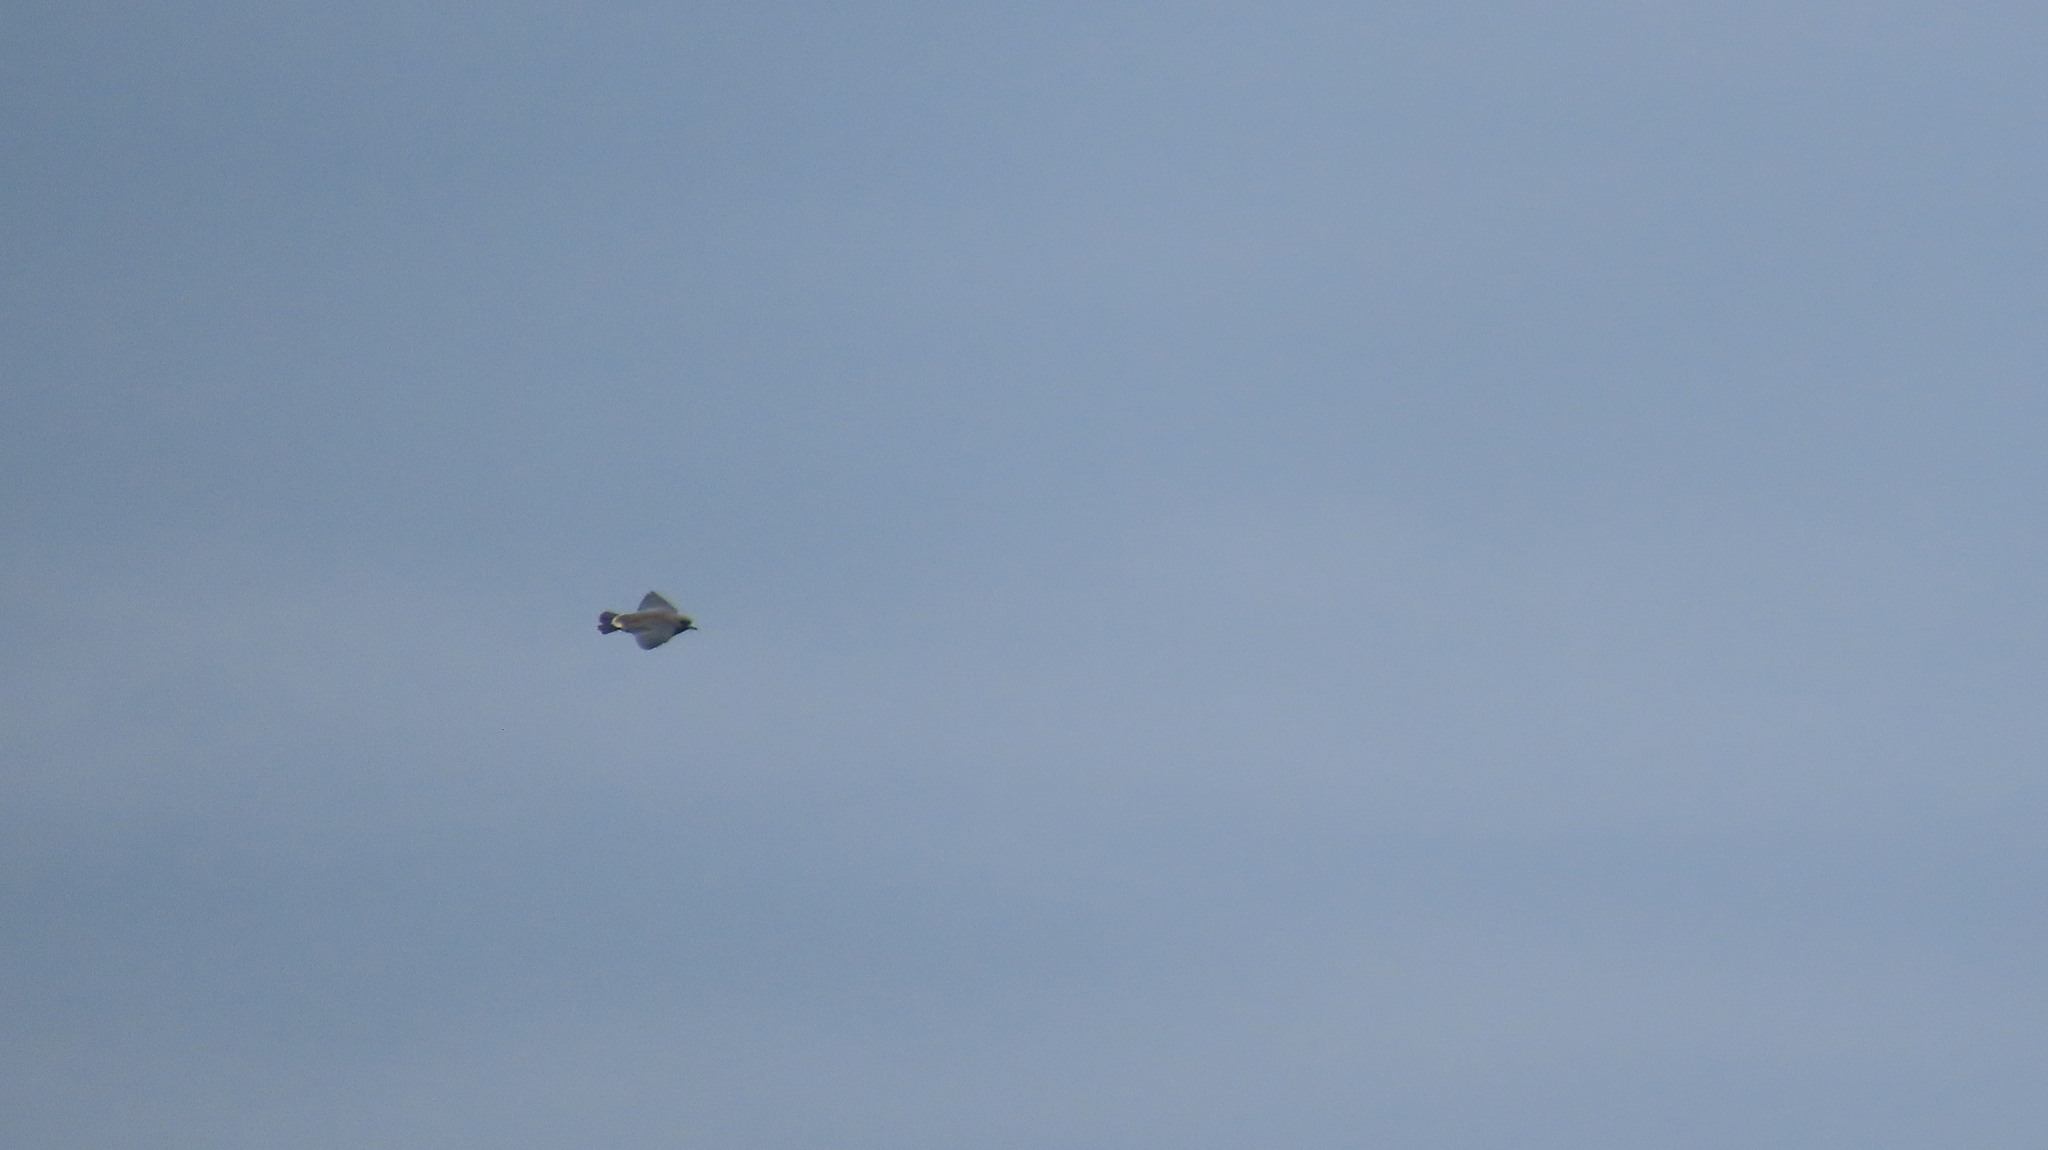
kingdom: Animalia
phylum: Chordata
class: Aves
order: Passeriformes
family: Artamidae
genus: Artamus
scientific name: Artamus fuscus
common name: Ashy woodswallow
